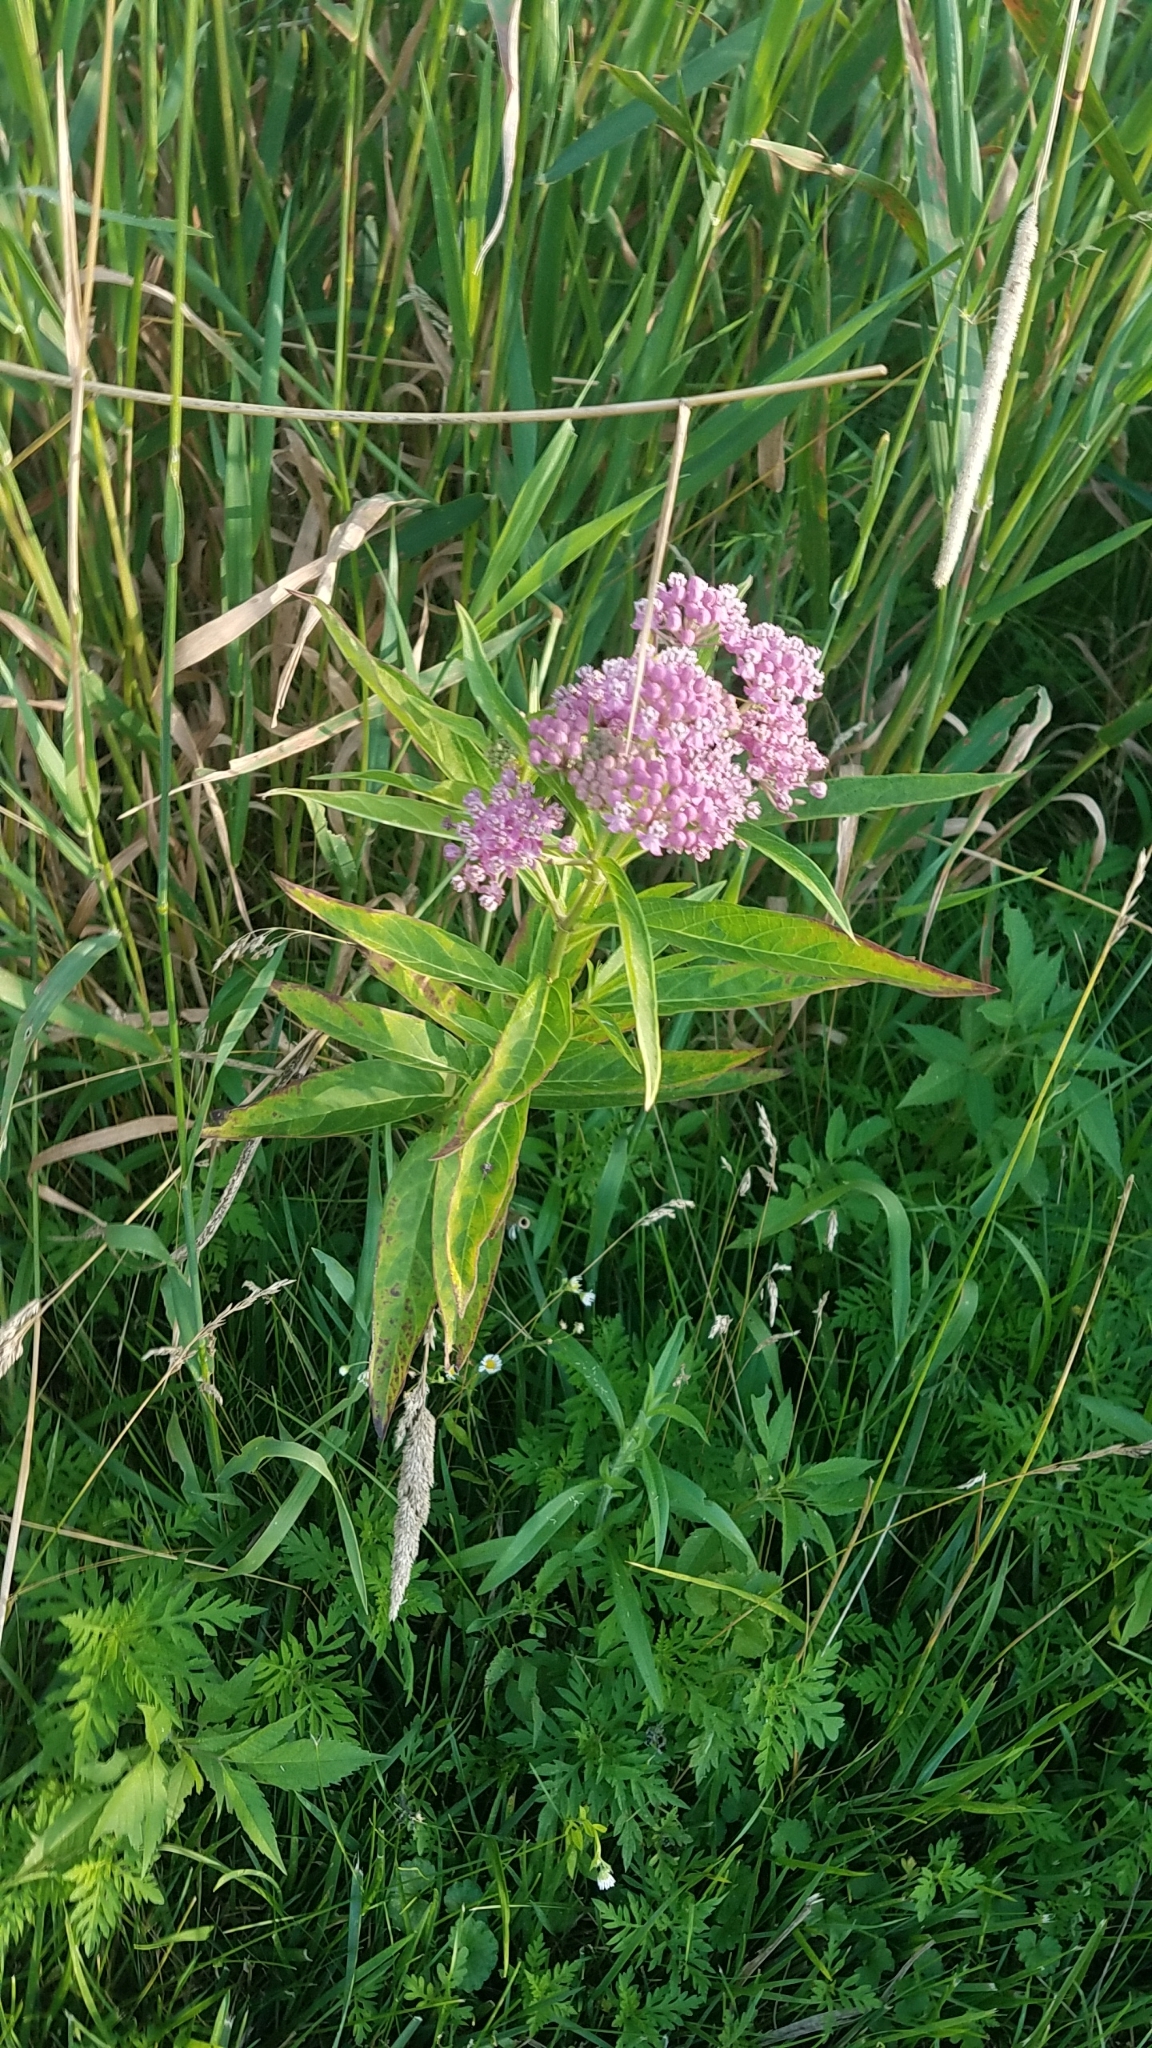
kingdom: Plantae
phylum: Tracheophyta
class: Magnoliopsida
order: Gentianales
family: Apocynaceae
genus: Asclepias
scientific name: Asclepias incarnata
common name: Swamp milkweed
